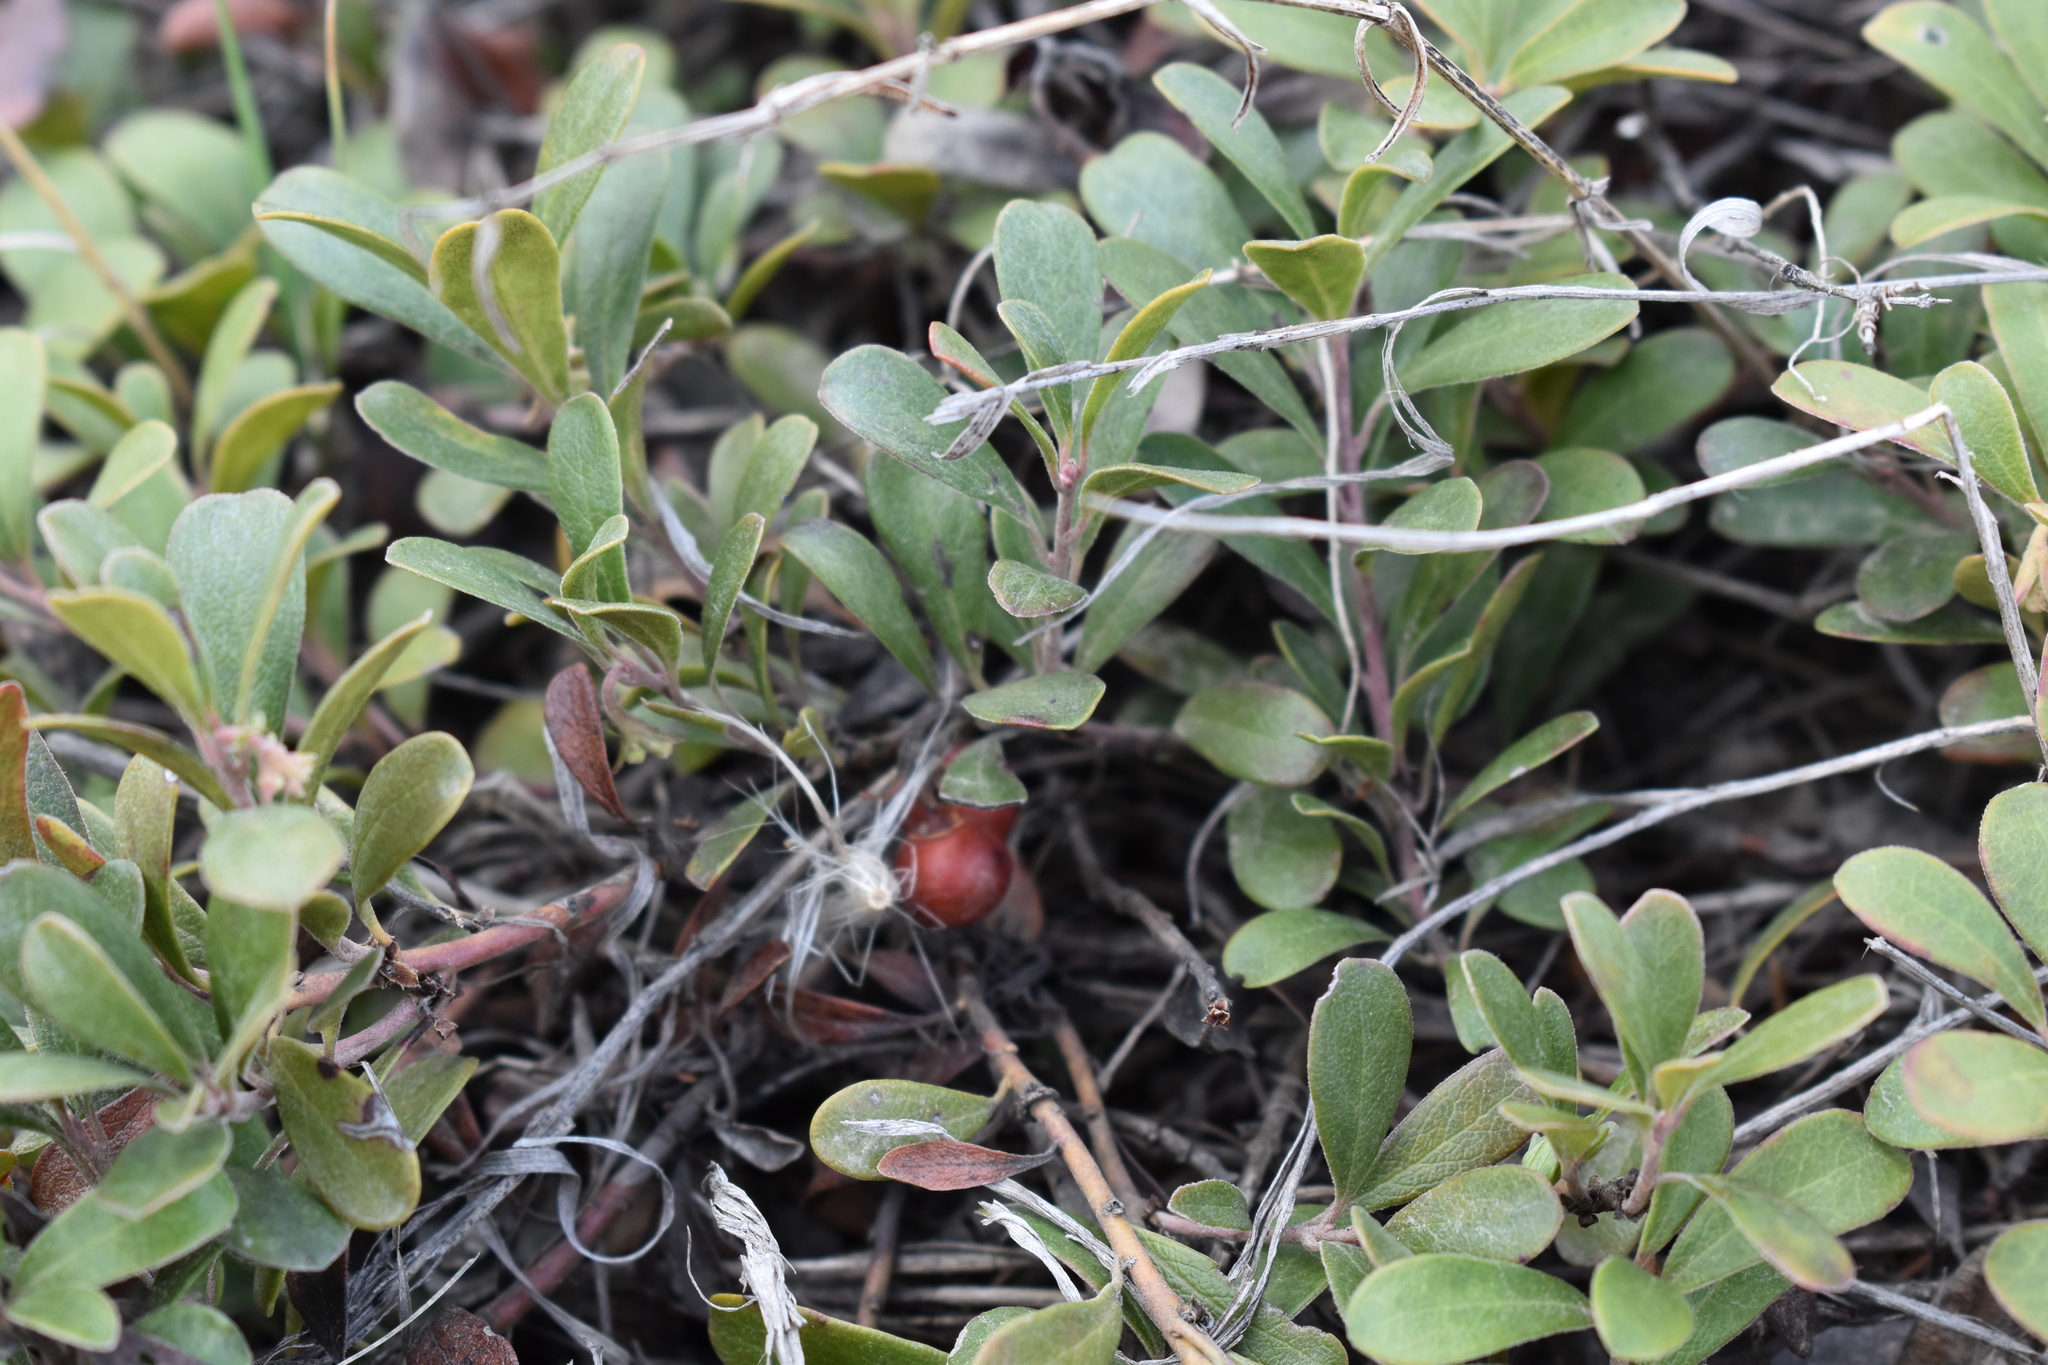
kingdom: Plantae
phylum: Tracheophyta
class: Magnoliopsida
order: Ericales
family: Ericaceae
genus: Arctostaphylos
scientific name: Arctostaphylos uva-ursi
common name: Bearberry
